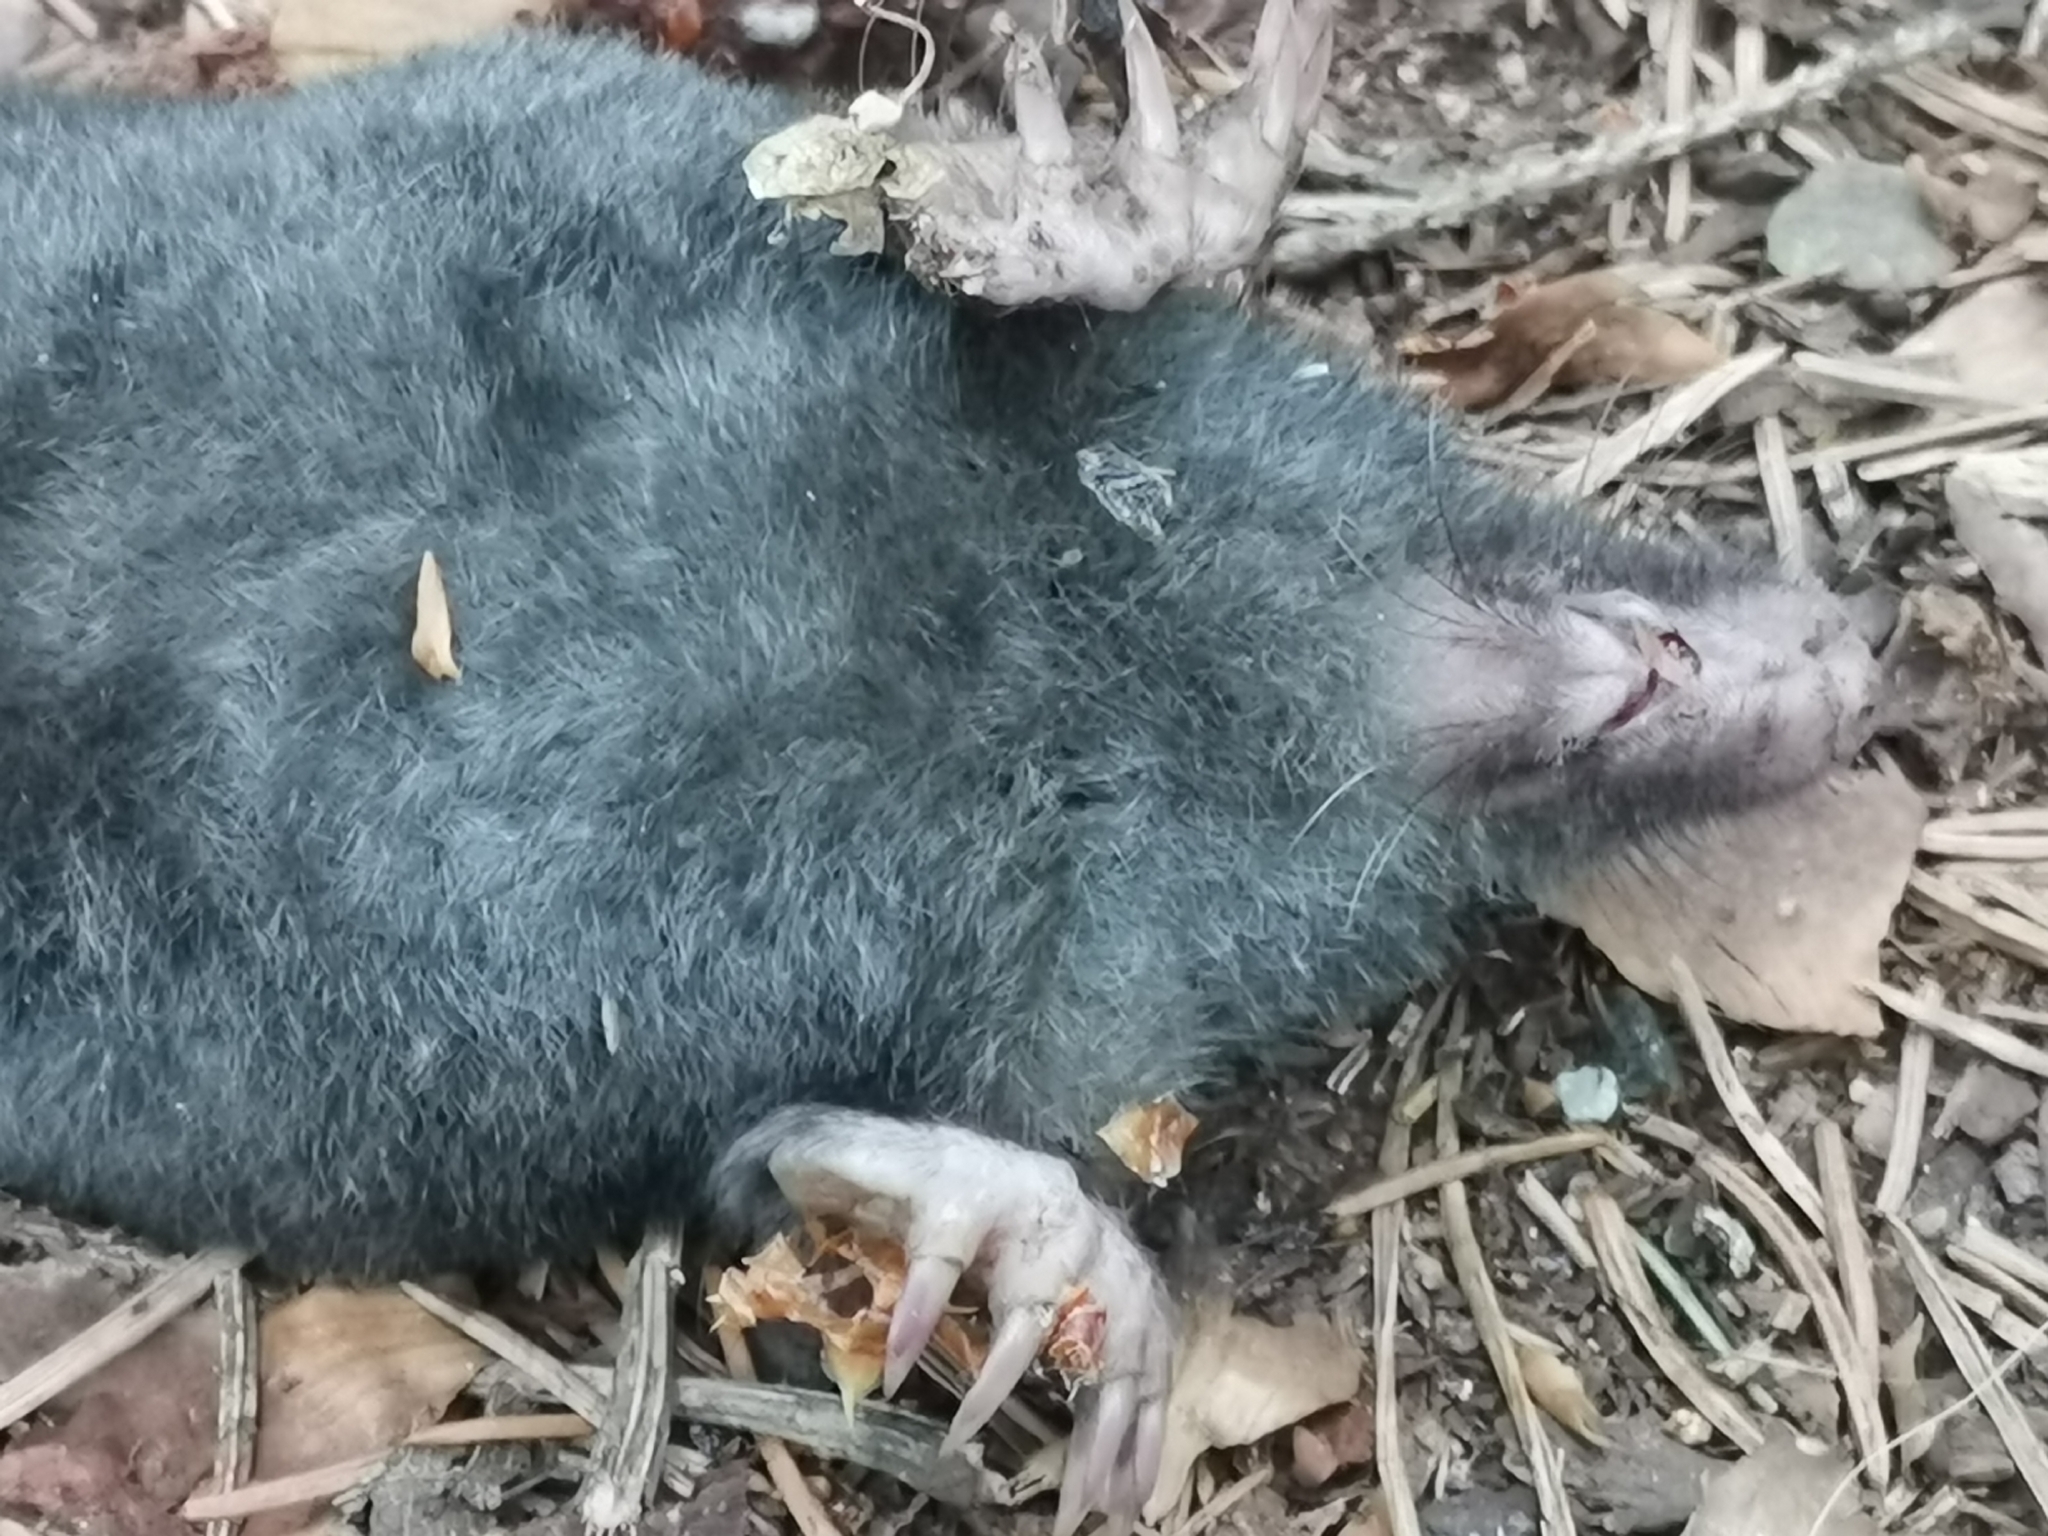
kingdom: Animalia
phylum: Chordata
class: Mammalia
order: Soricomorpha
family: Talpidae
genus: Talpa
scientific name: Talpa europaea
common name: European mole
